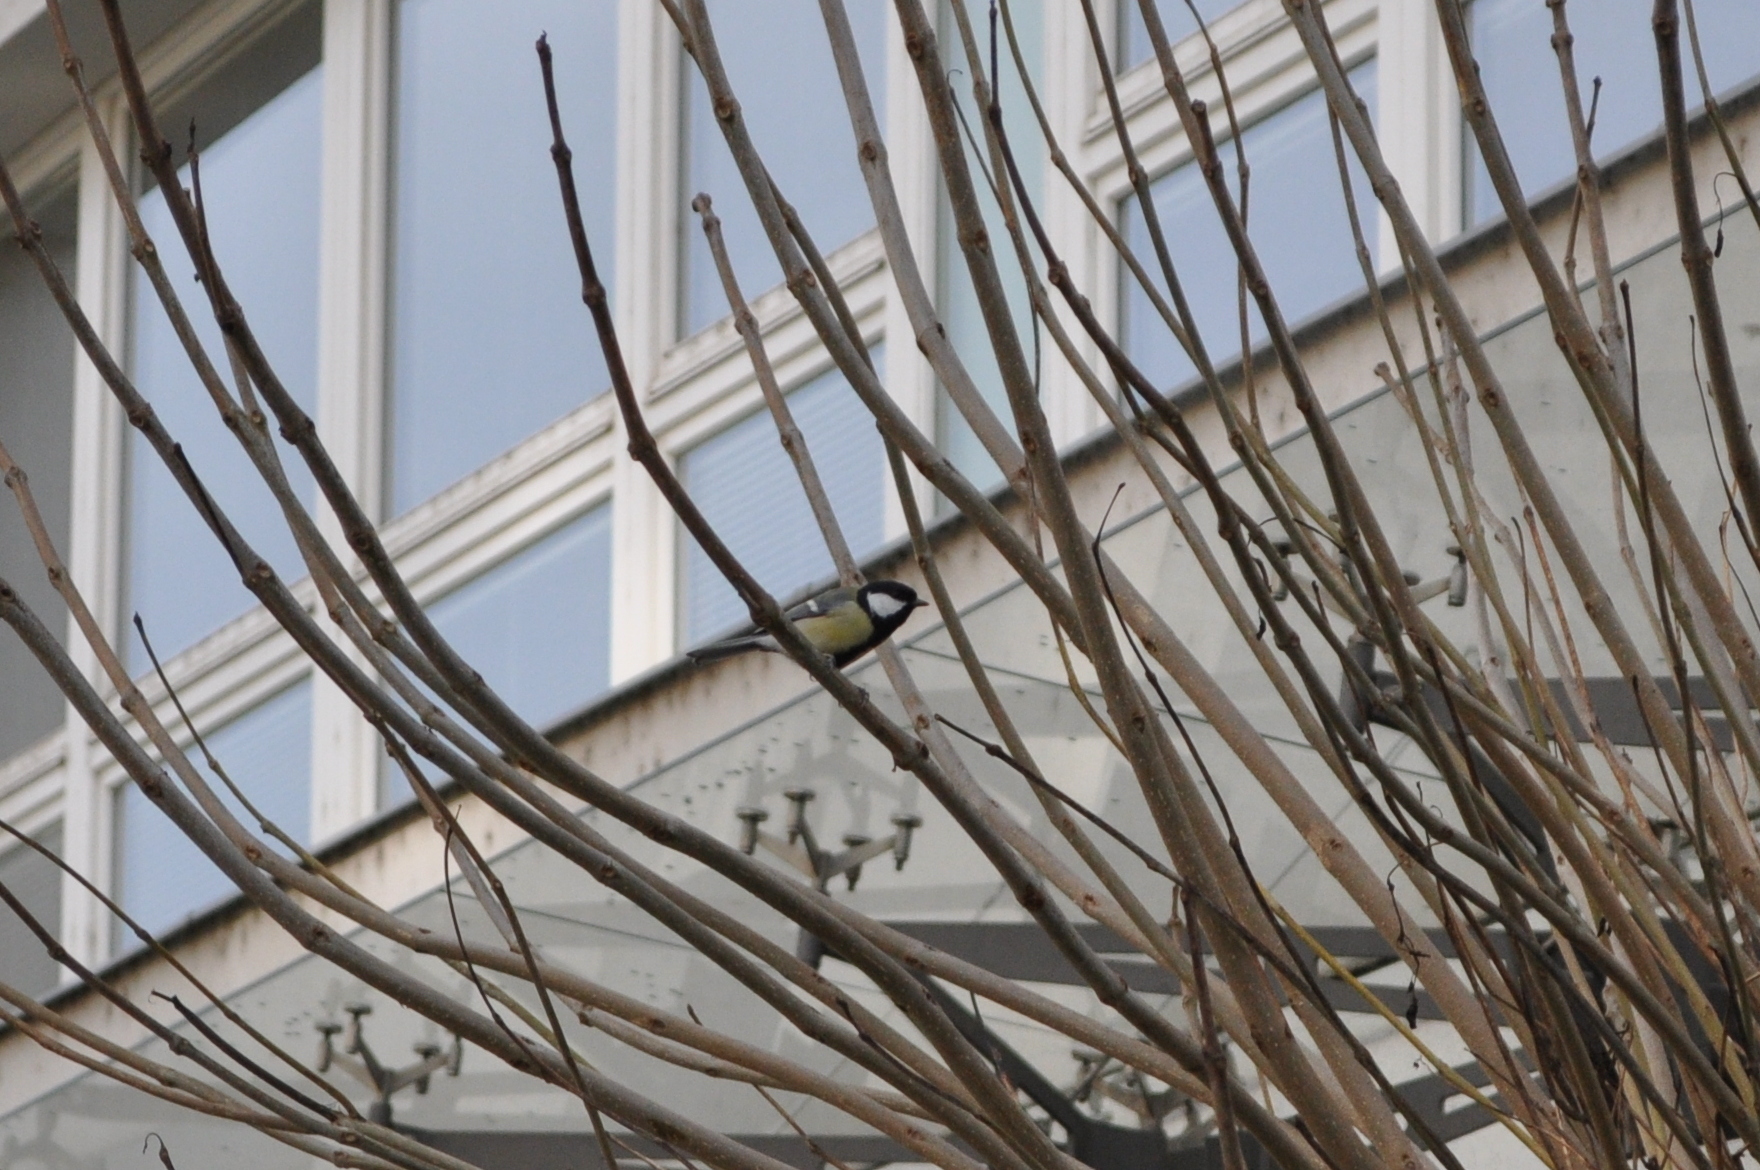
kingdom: Animalia
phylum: Chordata
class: Aves
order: Passeriformes
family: Paridae
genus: Parus
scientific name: Parus major
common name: Great tit
